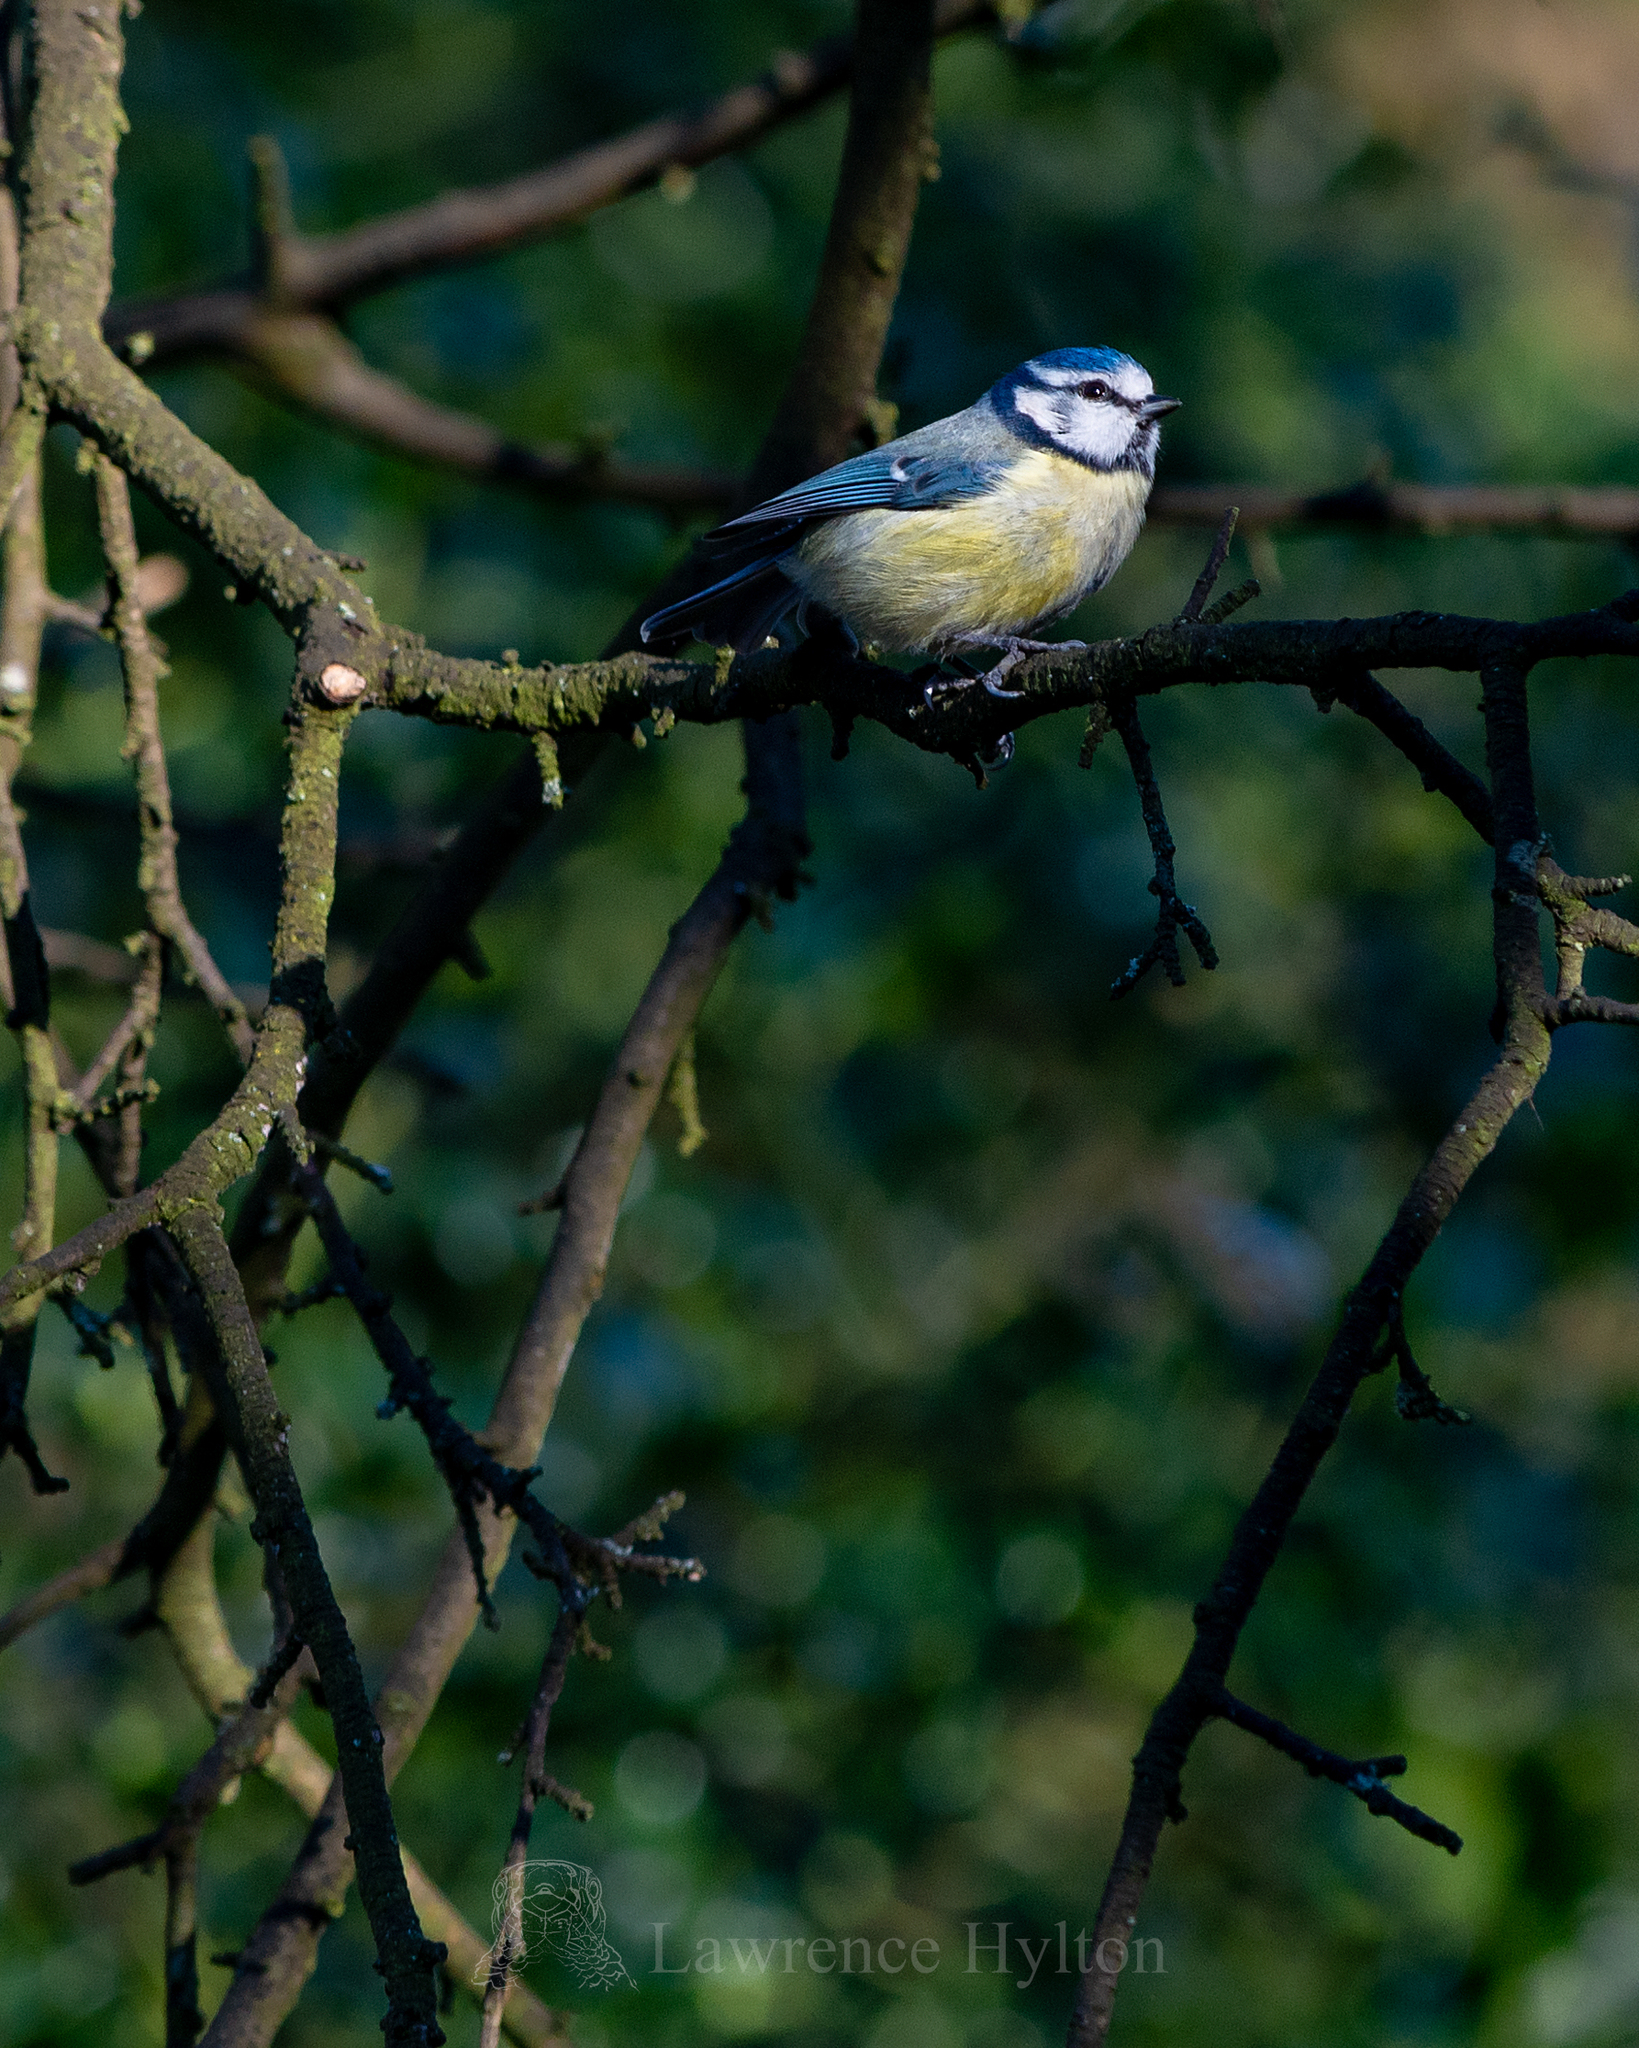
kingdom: Animalia
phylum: Chordata
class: Aves
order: Passeriformes
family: Paridae
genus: Cyanistes
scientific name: Cyanistes caeruleus
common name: Eurasian blue tit
